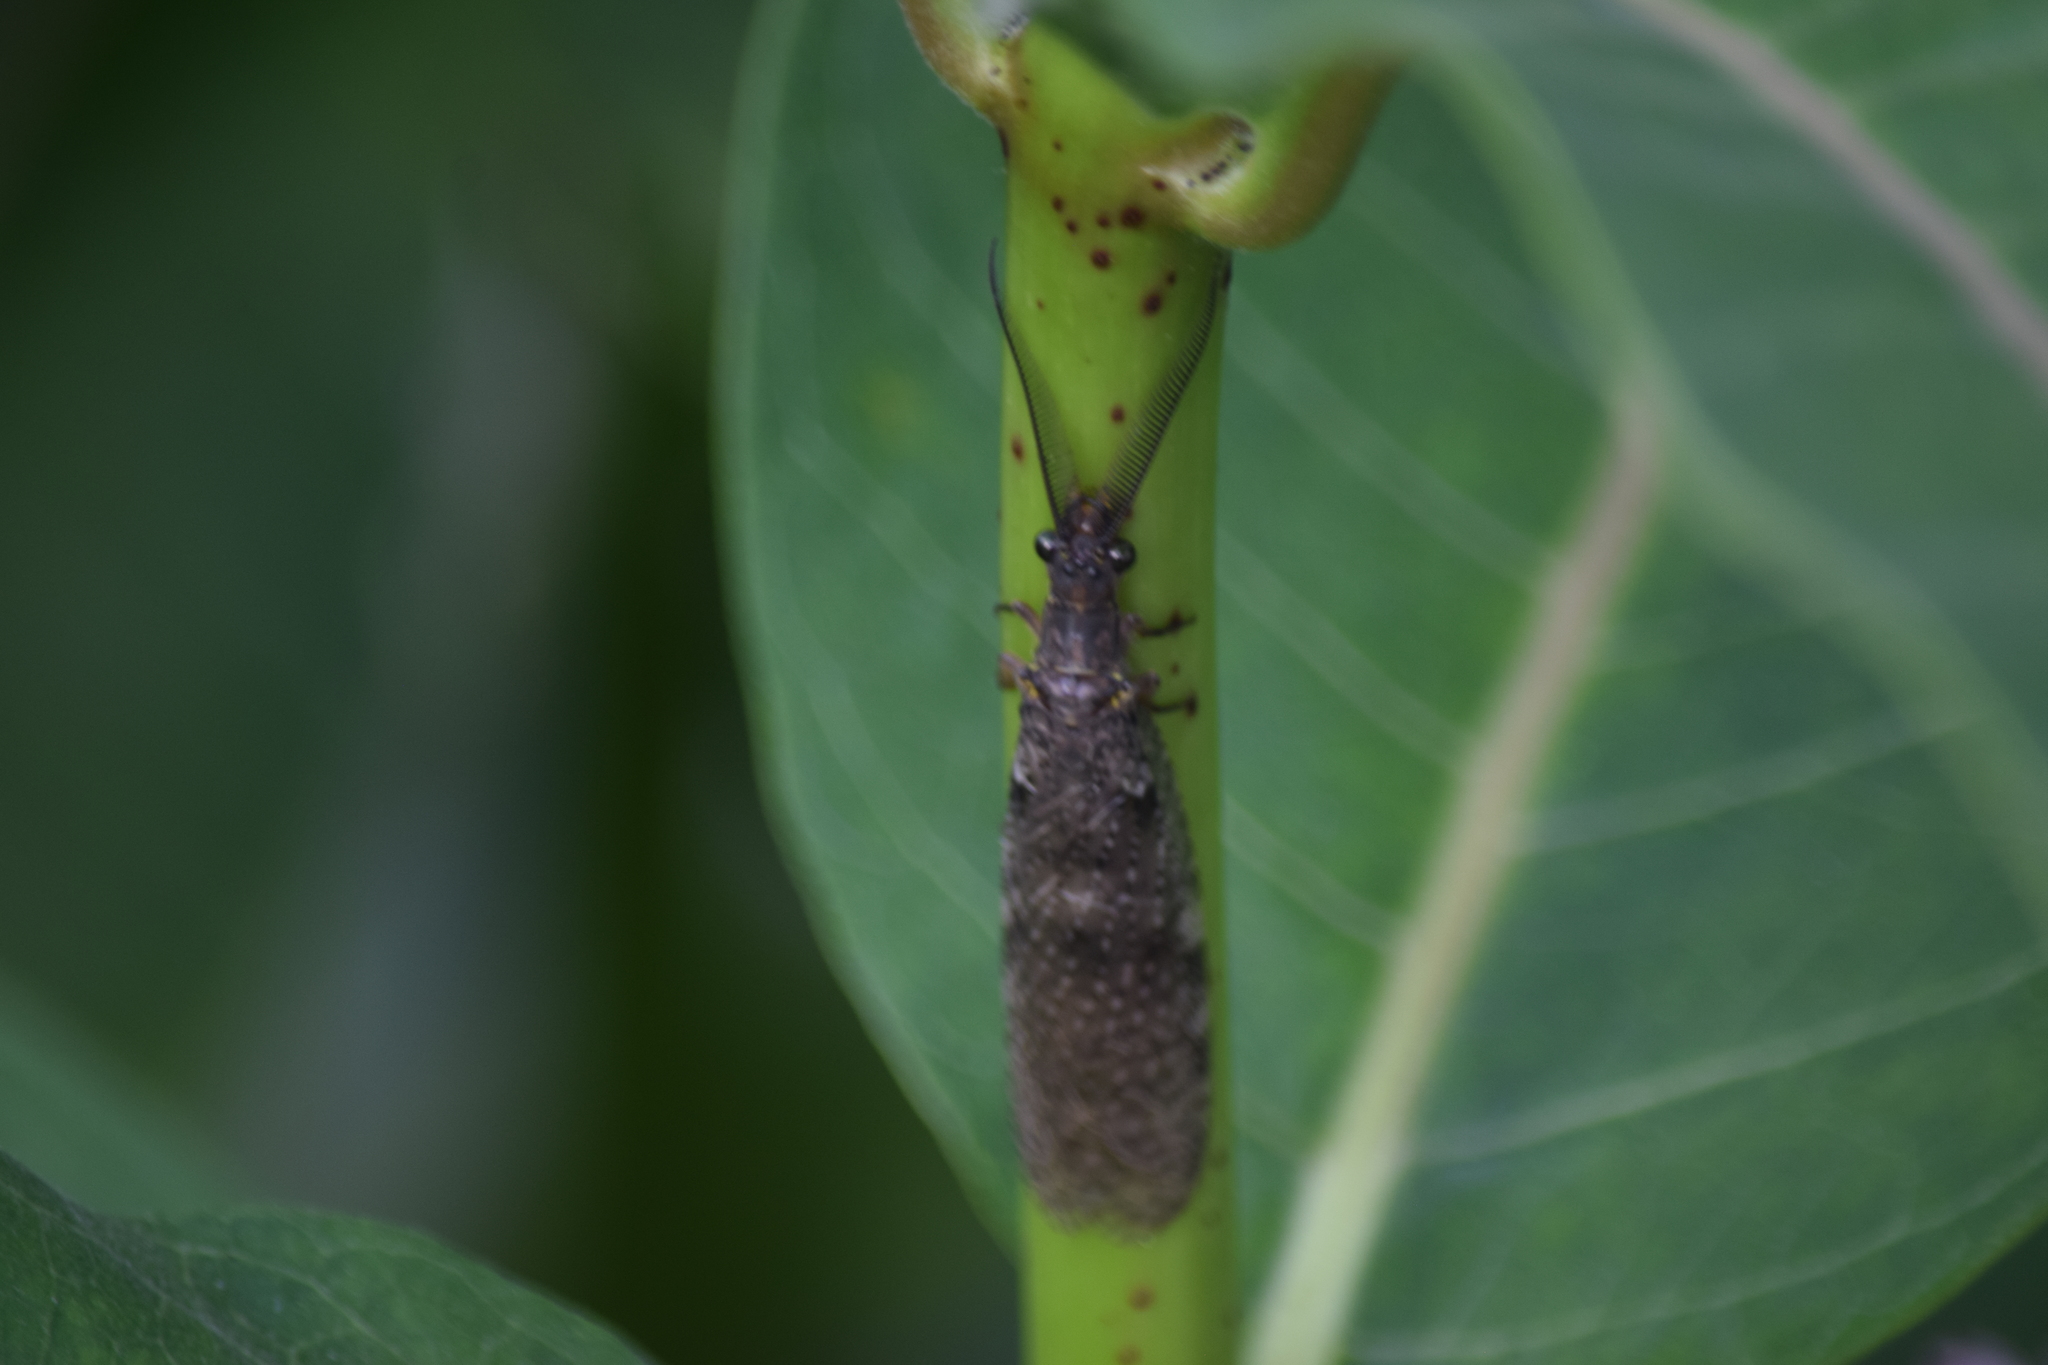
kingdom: Animalia
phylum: Arthropoda
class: Insecta
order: Megaloptera
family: Corydalidae
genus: Chauliodes
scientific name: Chauliodes pectinicornis
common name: Summer fishfly
